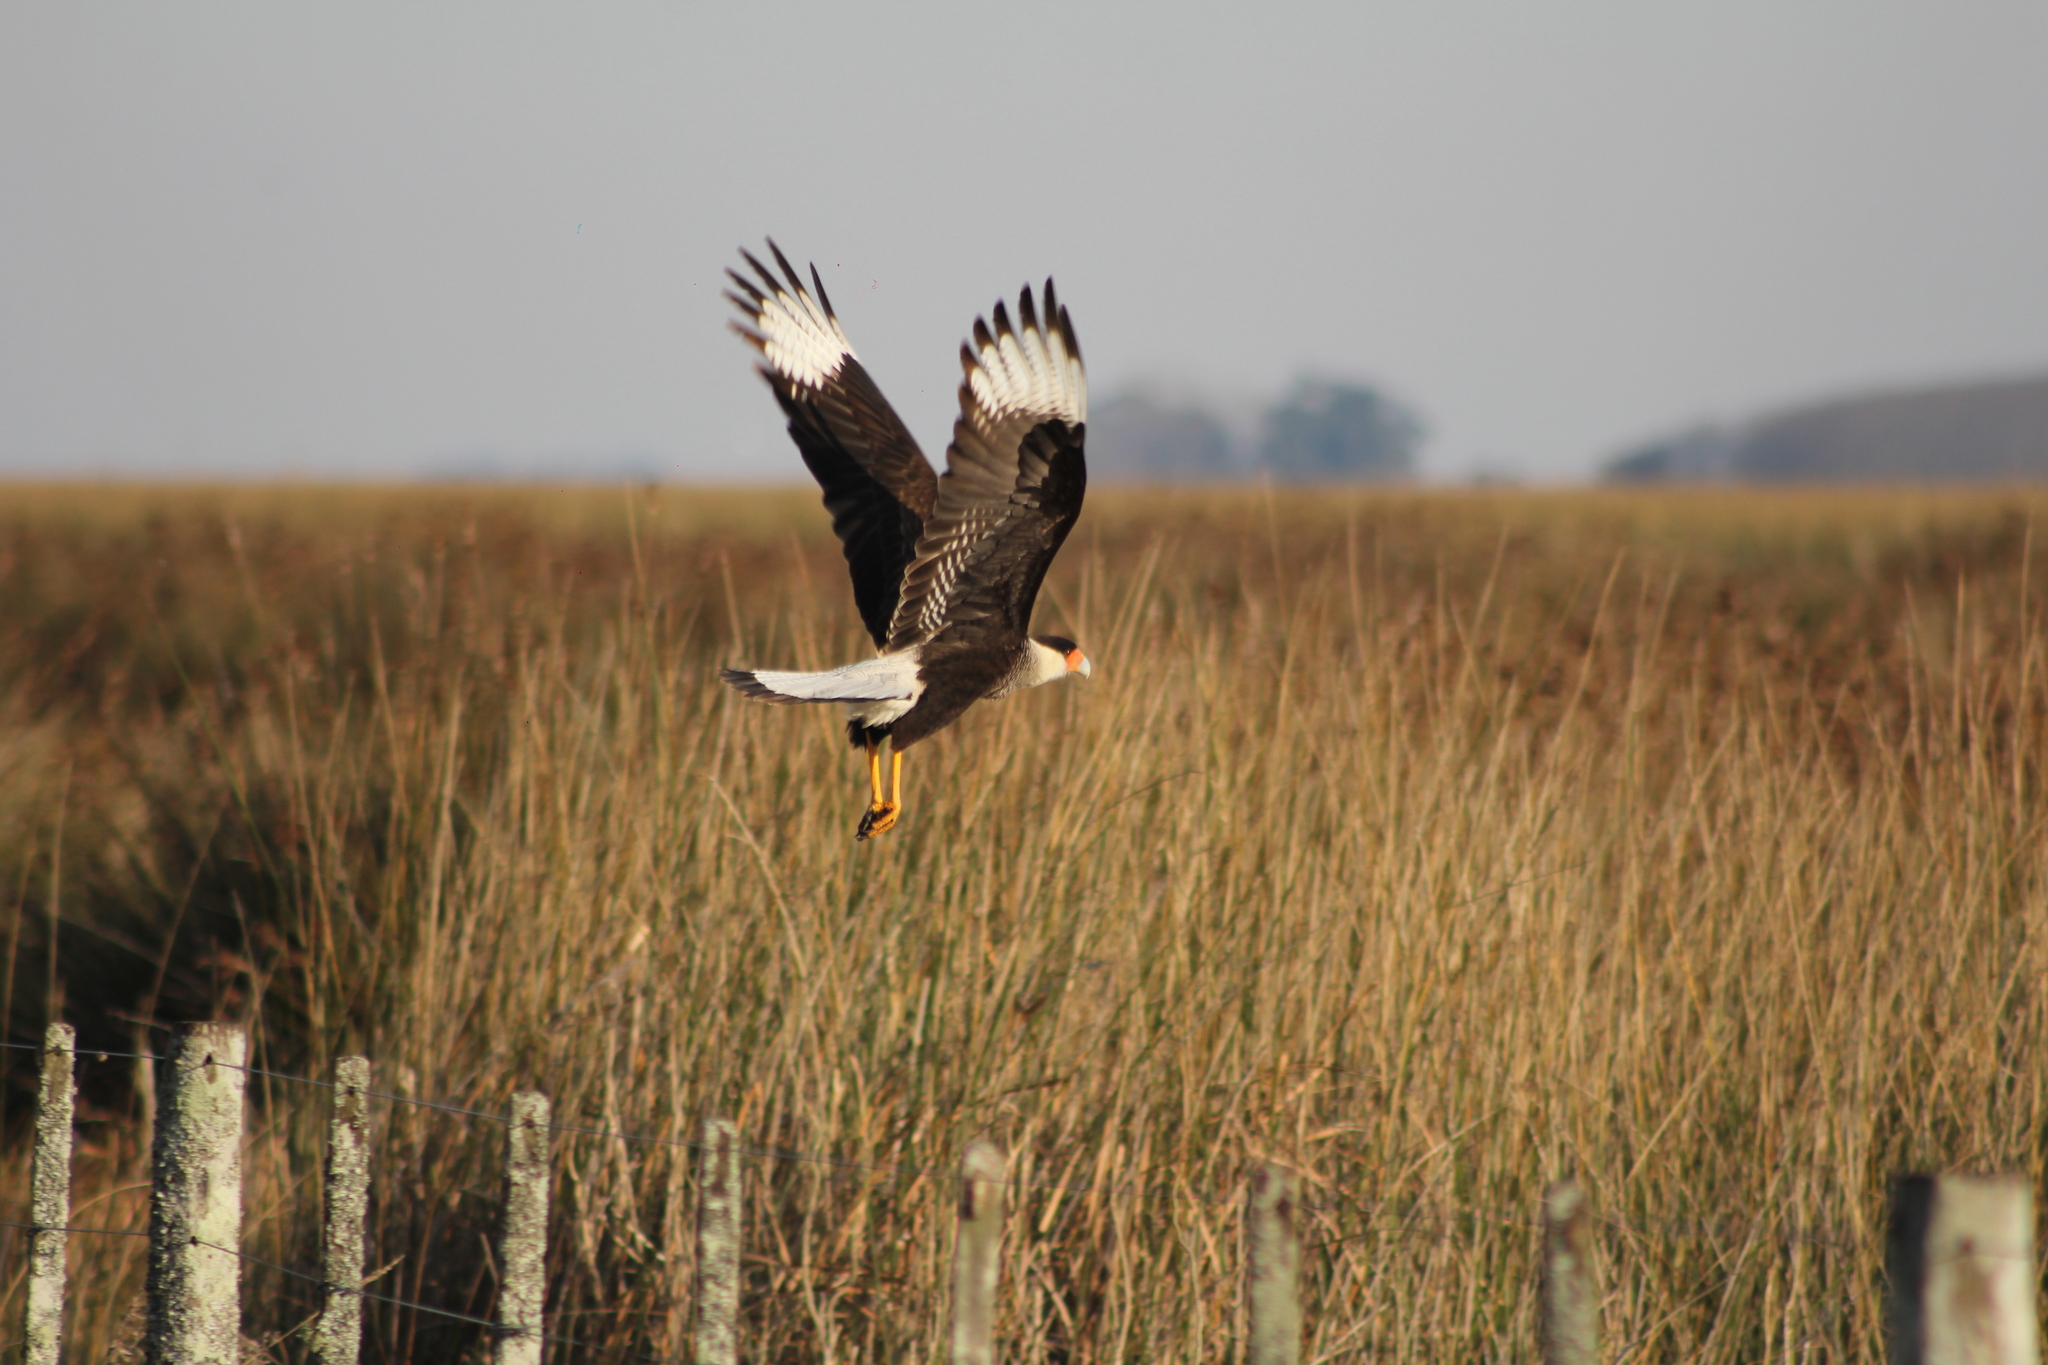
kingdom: Animalia
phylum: Chordata
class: Aves
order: Falconiformes
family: Falconidae
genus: Caracara
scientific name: Caracara plancus
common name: Southern caracara
